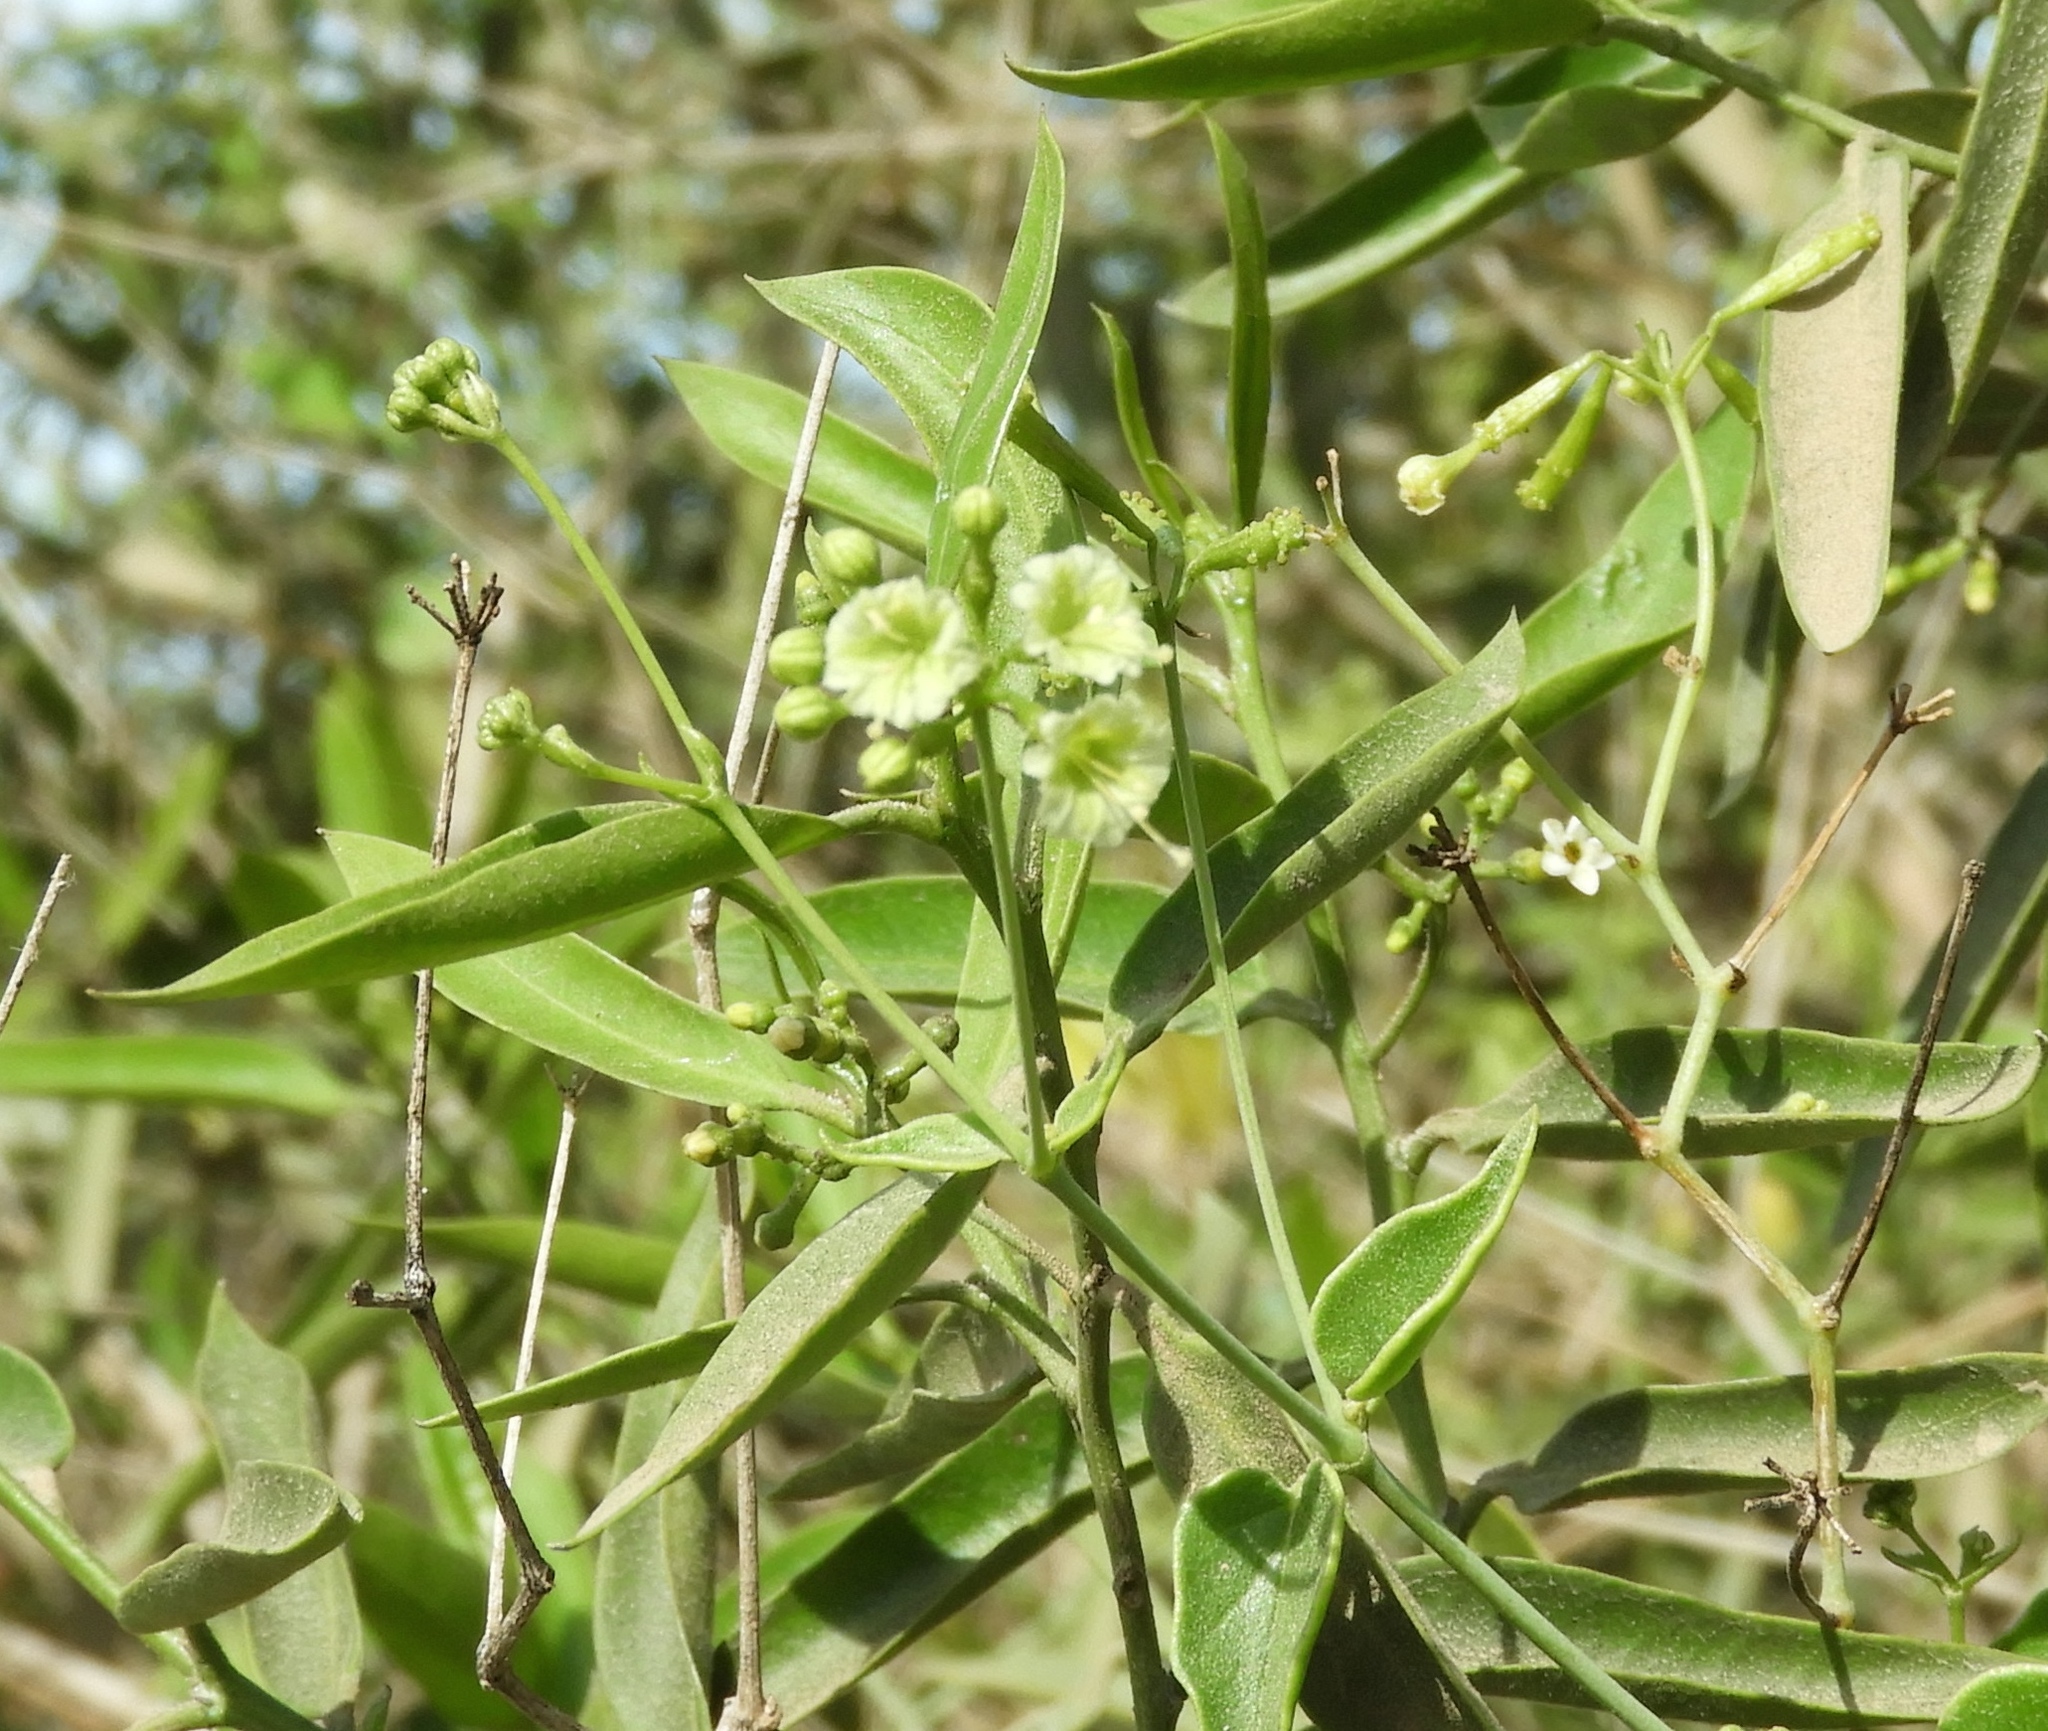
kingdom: Plantae
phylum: Tracheophyta
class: Magnoliopsida
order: Caryophyllales
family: Nyctaginaceae
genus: Commicarpus
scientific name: Commicarpus scandens
